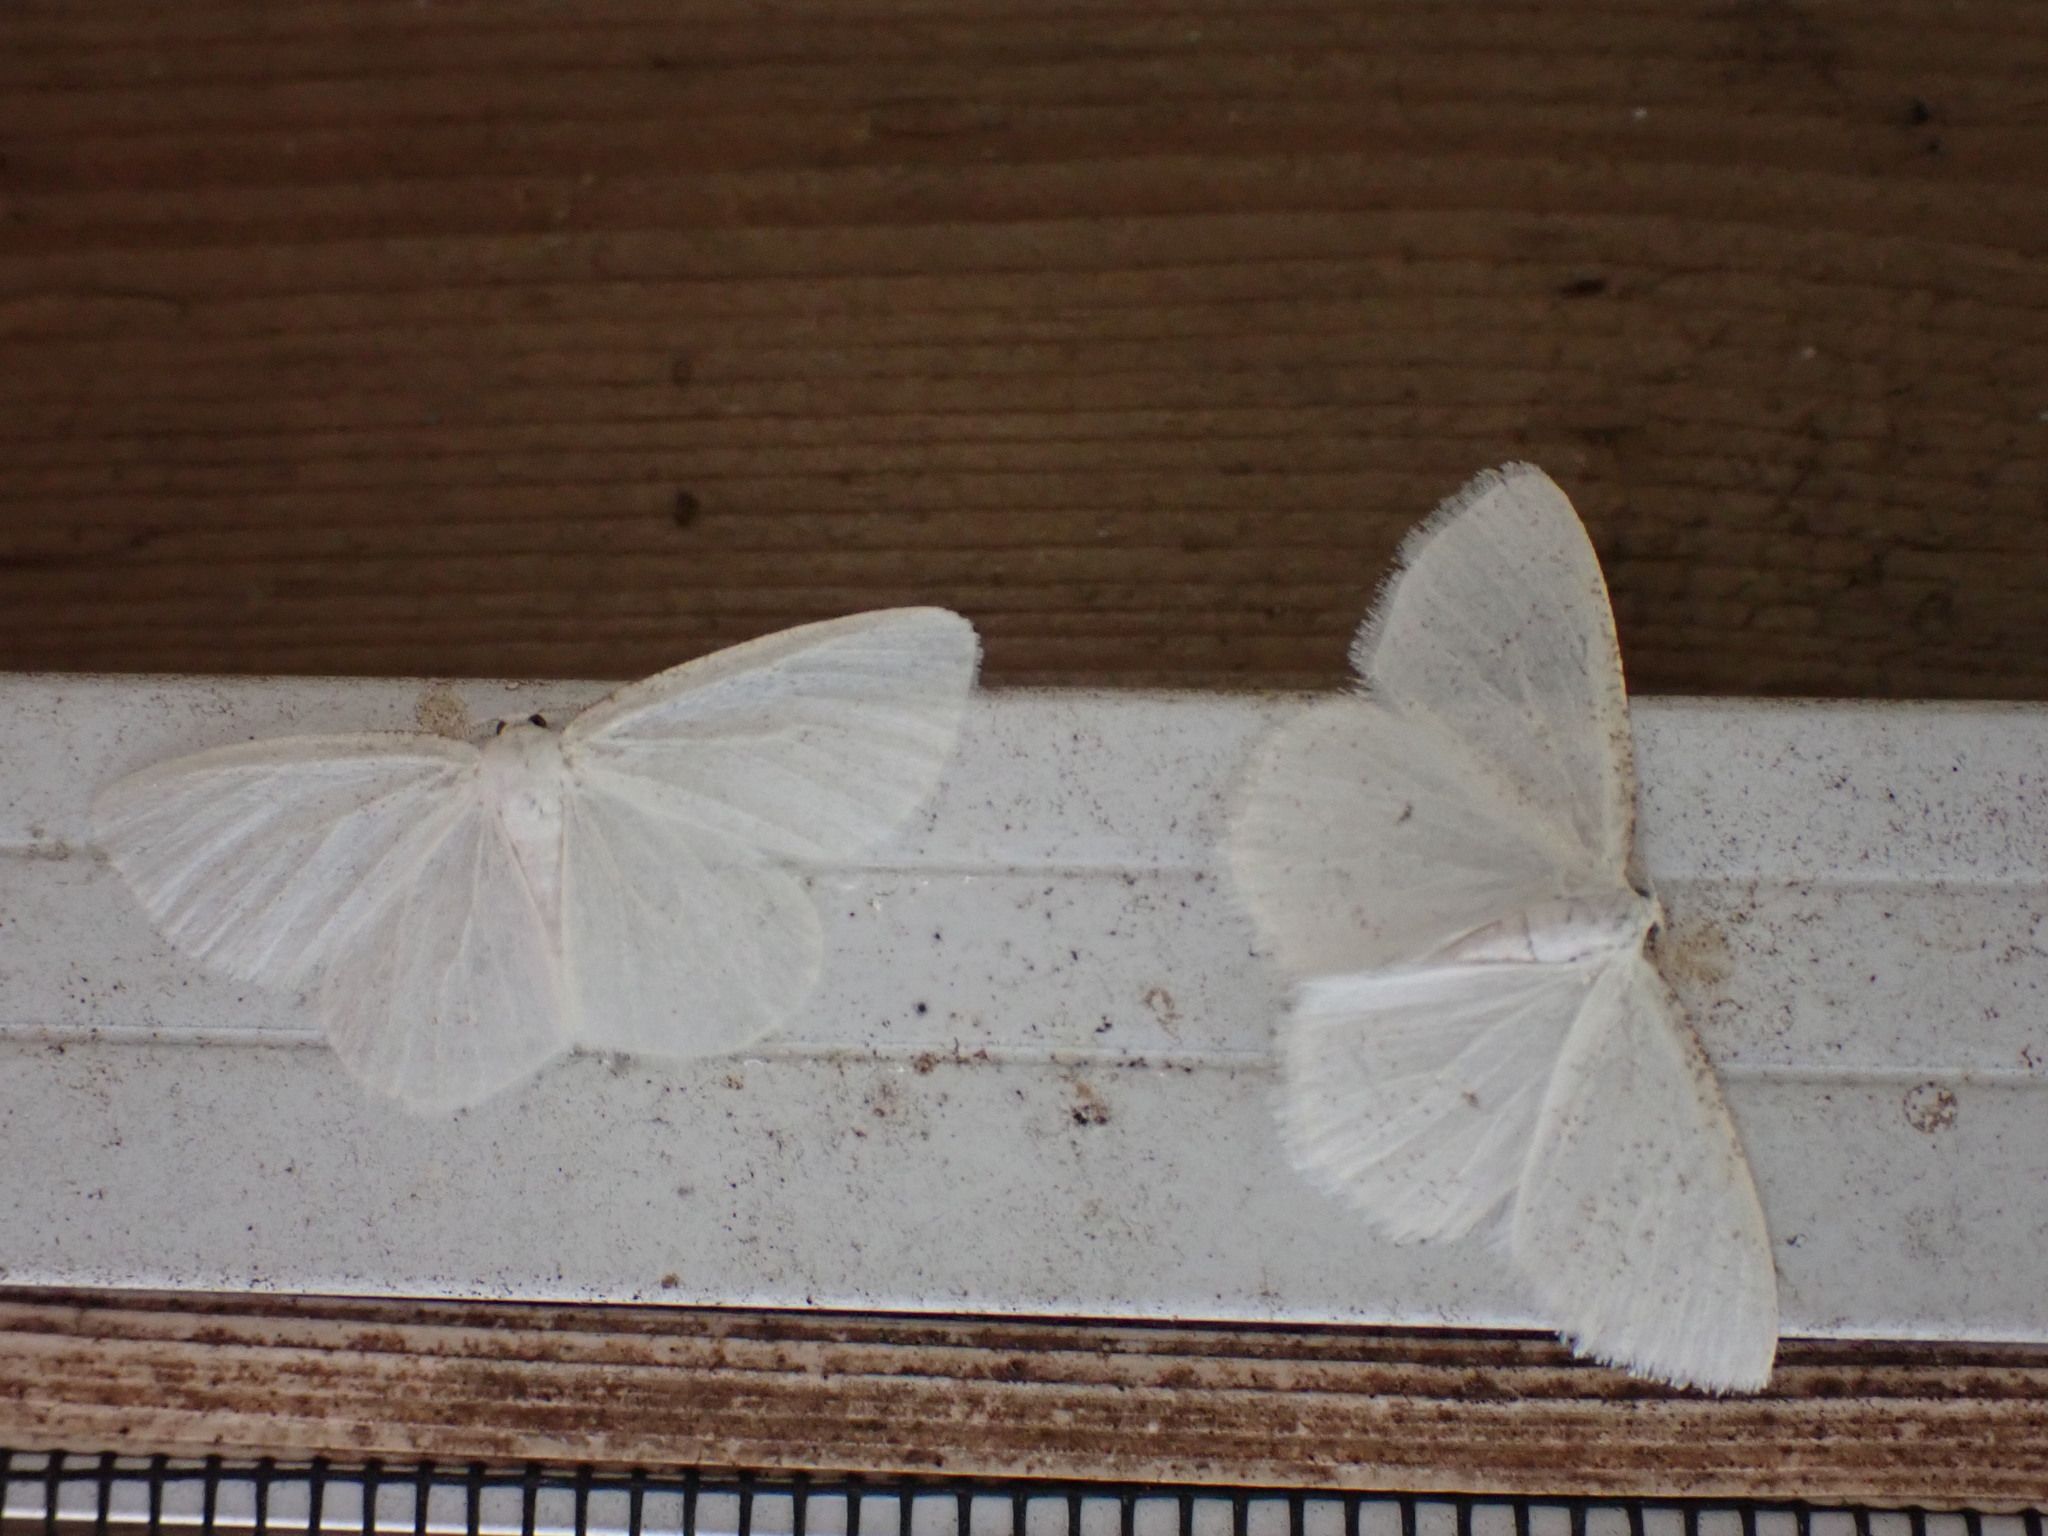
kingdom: Animalia
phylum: Arthropoda
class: Insecta
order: Lepidoptera
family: Geometridae
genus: Protitame
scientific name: Protitame virginalis
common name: Virgin moth
